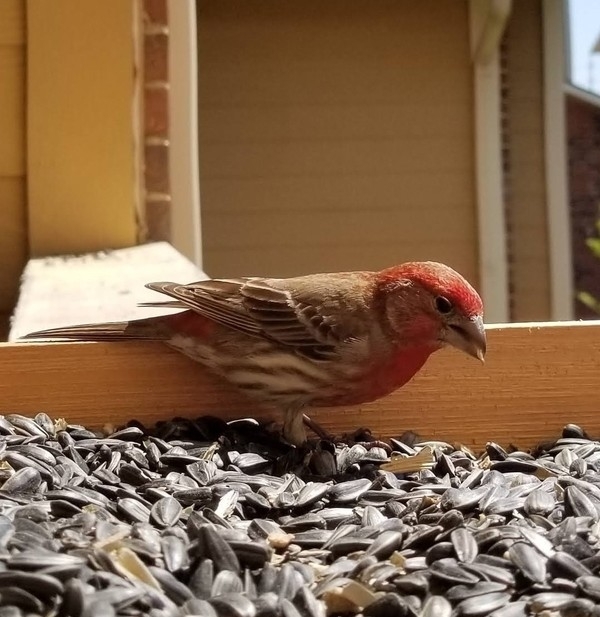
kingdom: Animalia
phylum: Chordata
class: Aves
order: Passeriformes
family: Fringillidae
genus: Haemorhous
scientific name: Haemorhous mexicanus
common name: House finch
